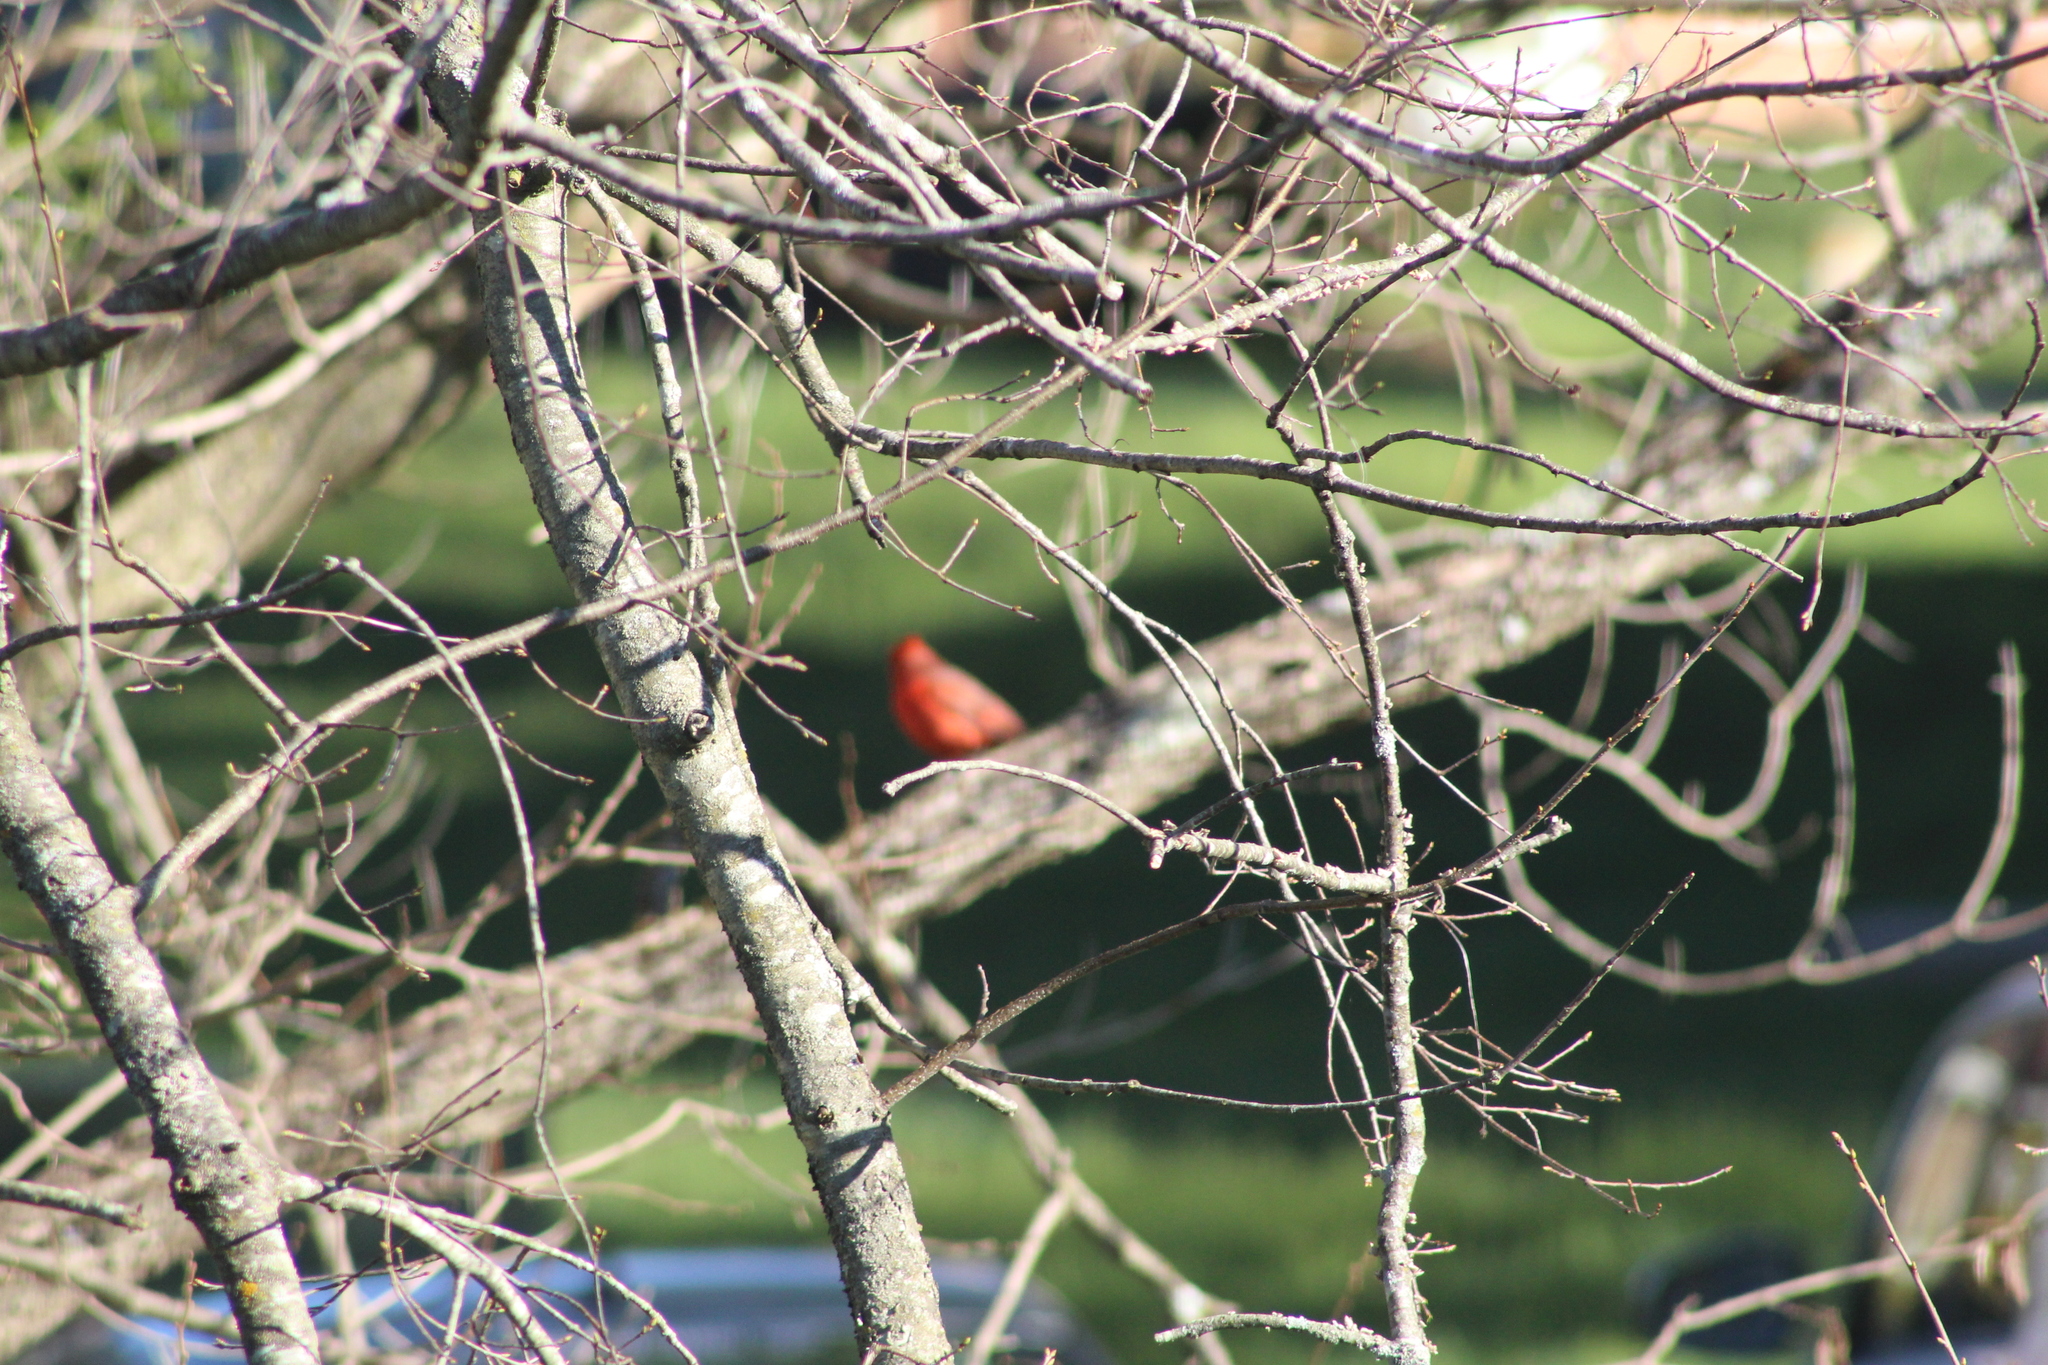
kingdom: Animalia
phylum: Chordata
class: Aves
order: Passeriformes
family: Cardinalidae
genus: Cardinalis
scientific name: Cardinalis cardinalis
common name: Northern cardinal
